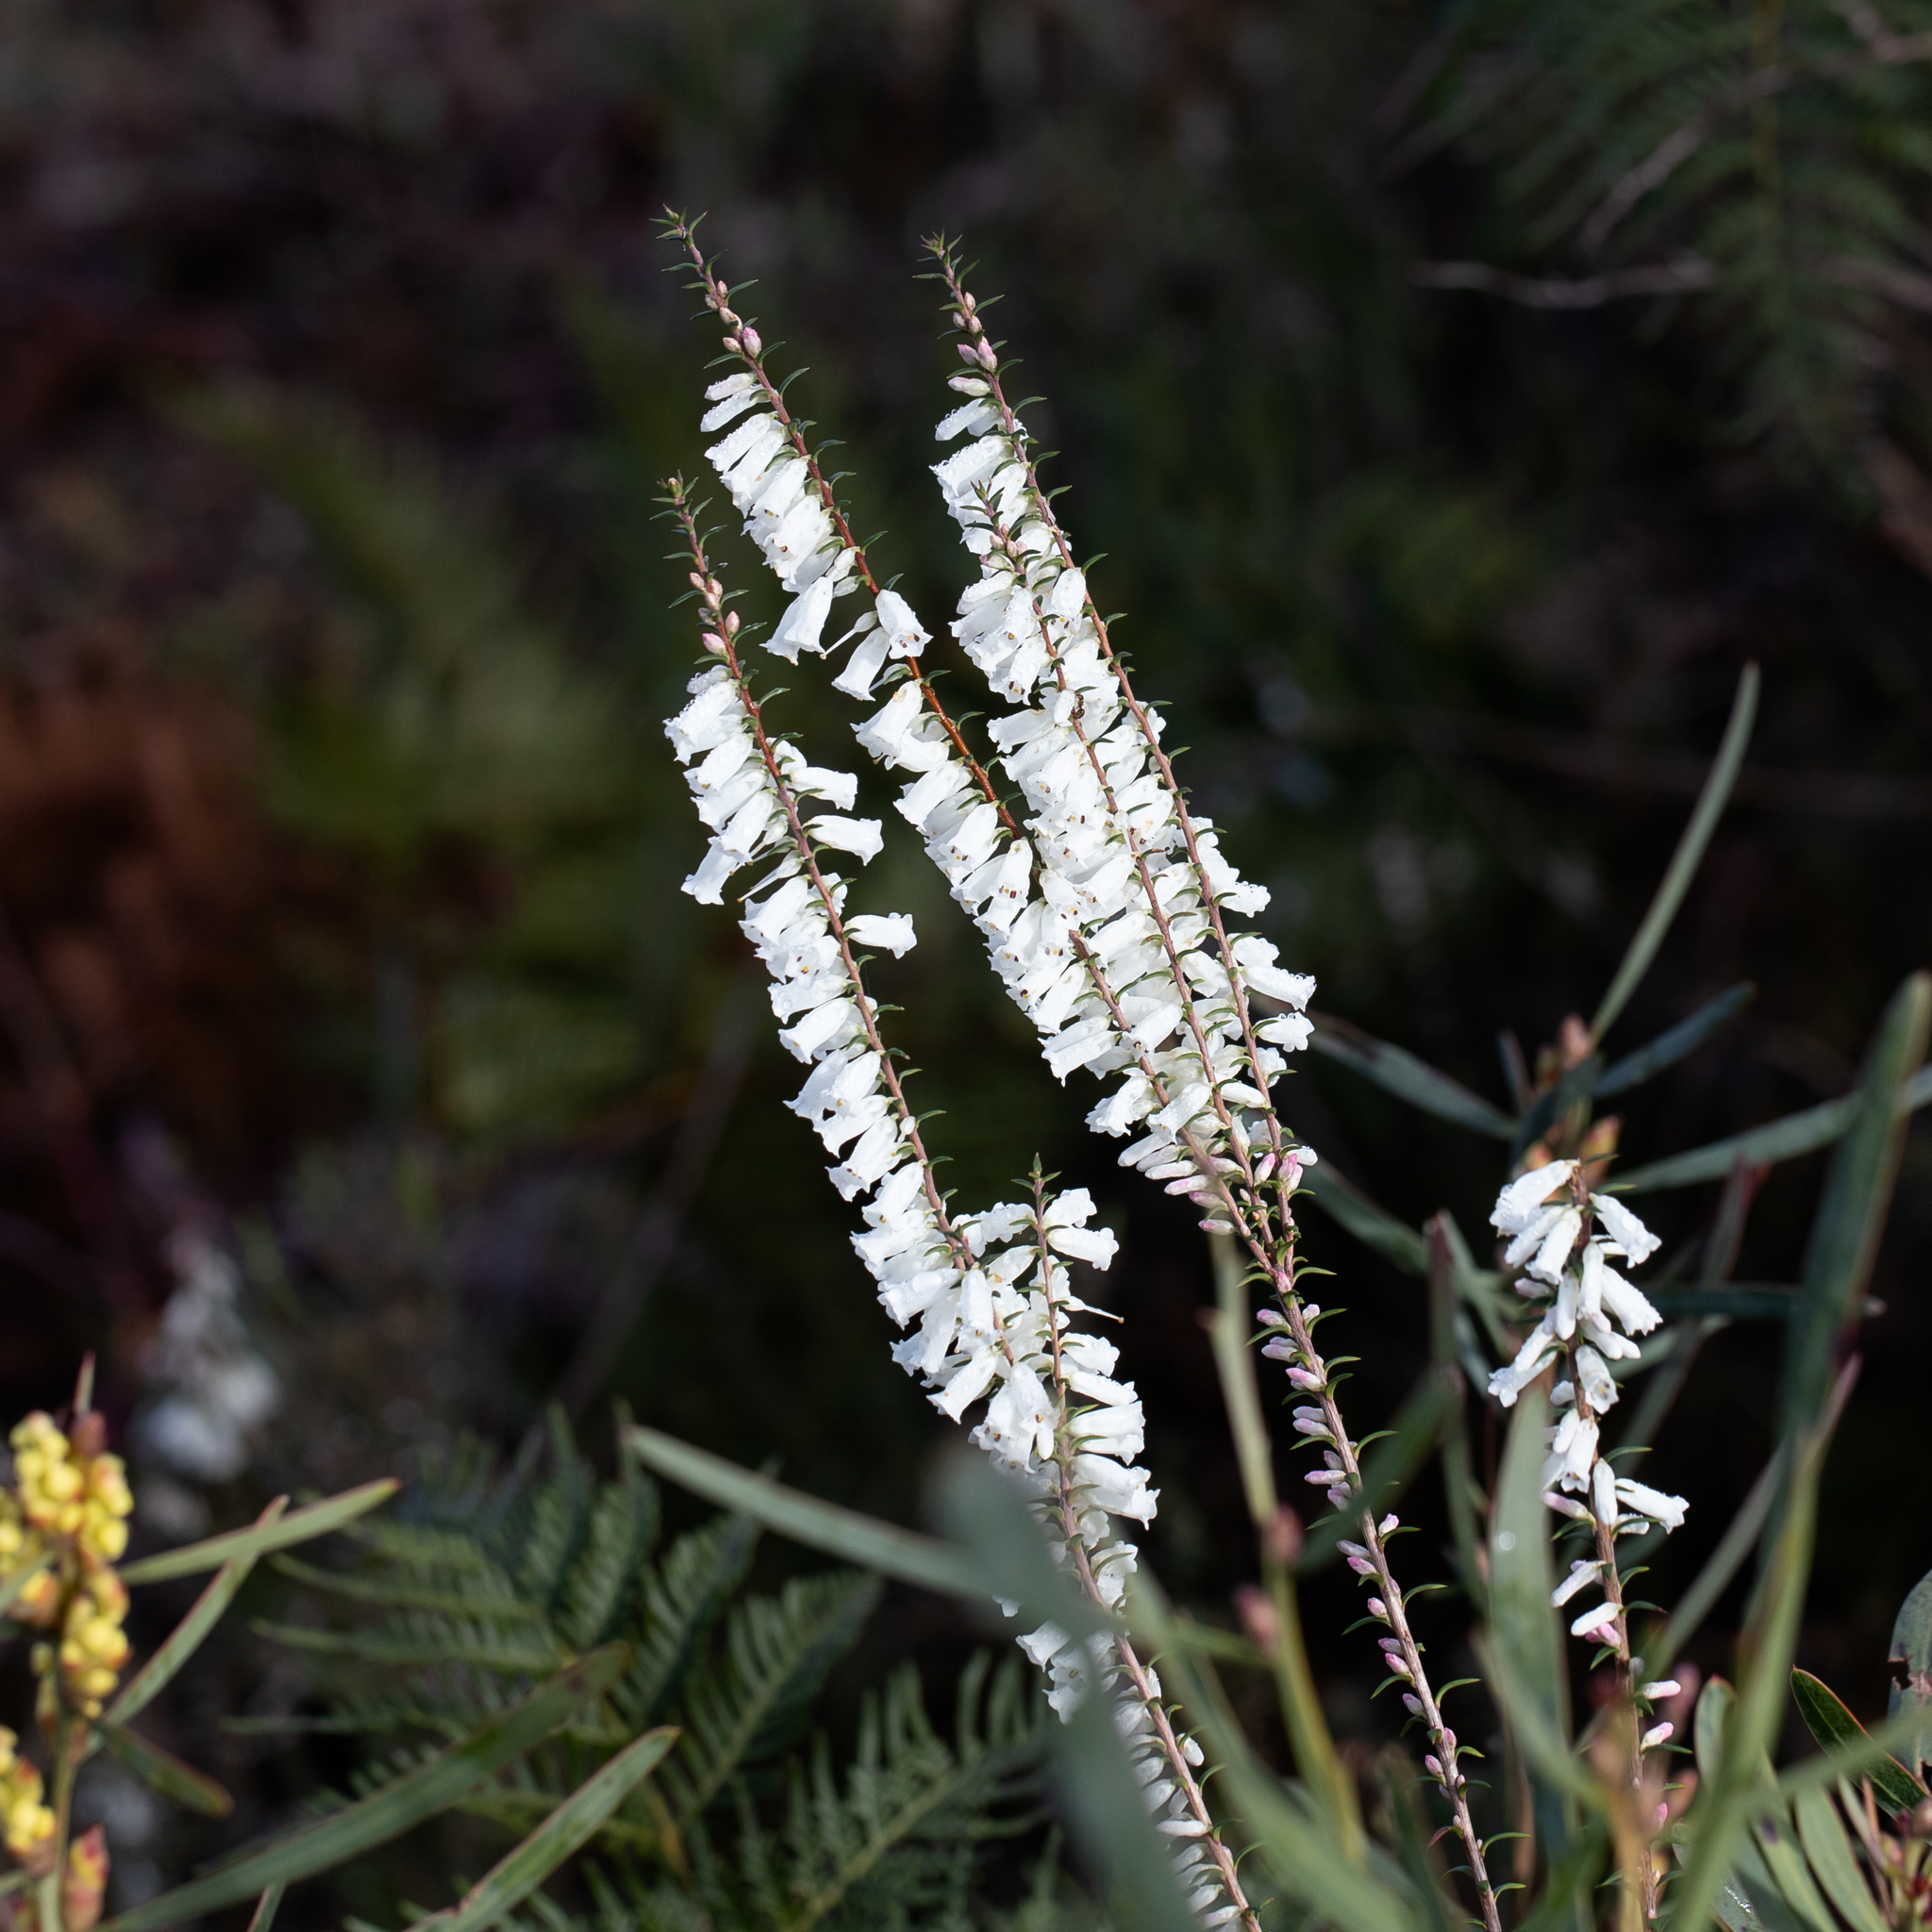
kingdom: Plantae
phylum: Tracheophyta
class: Magnoliopsida
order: Ericales
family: Ericaceae
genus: Epacris
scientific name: Epacris impressa
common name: Common-heath
